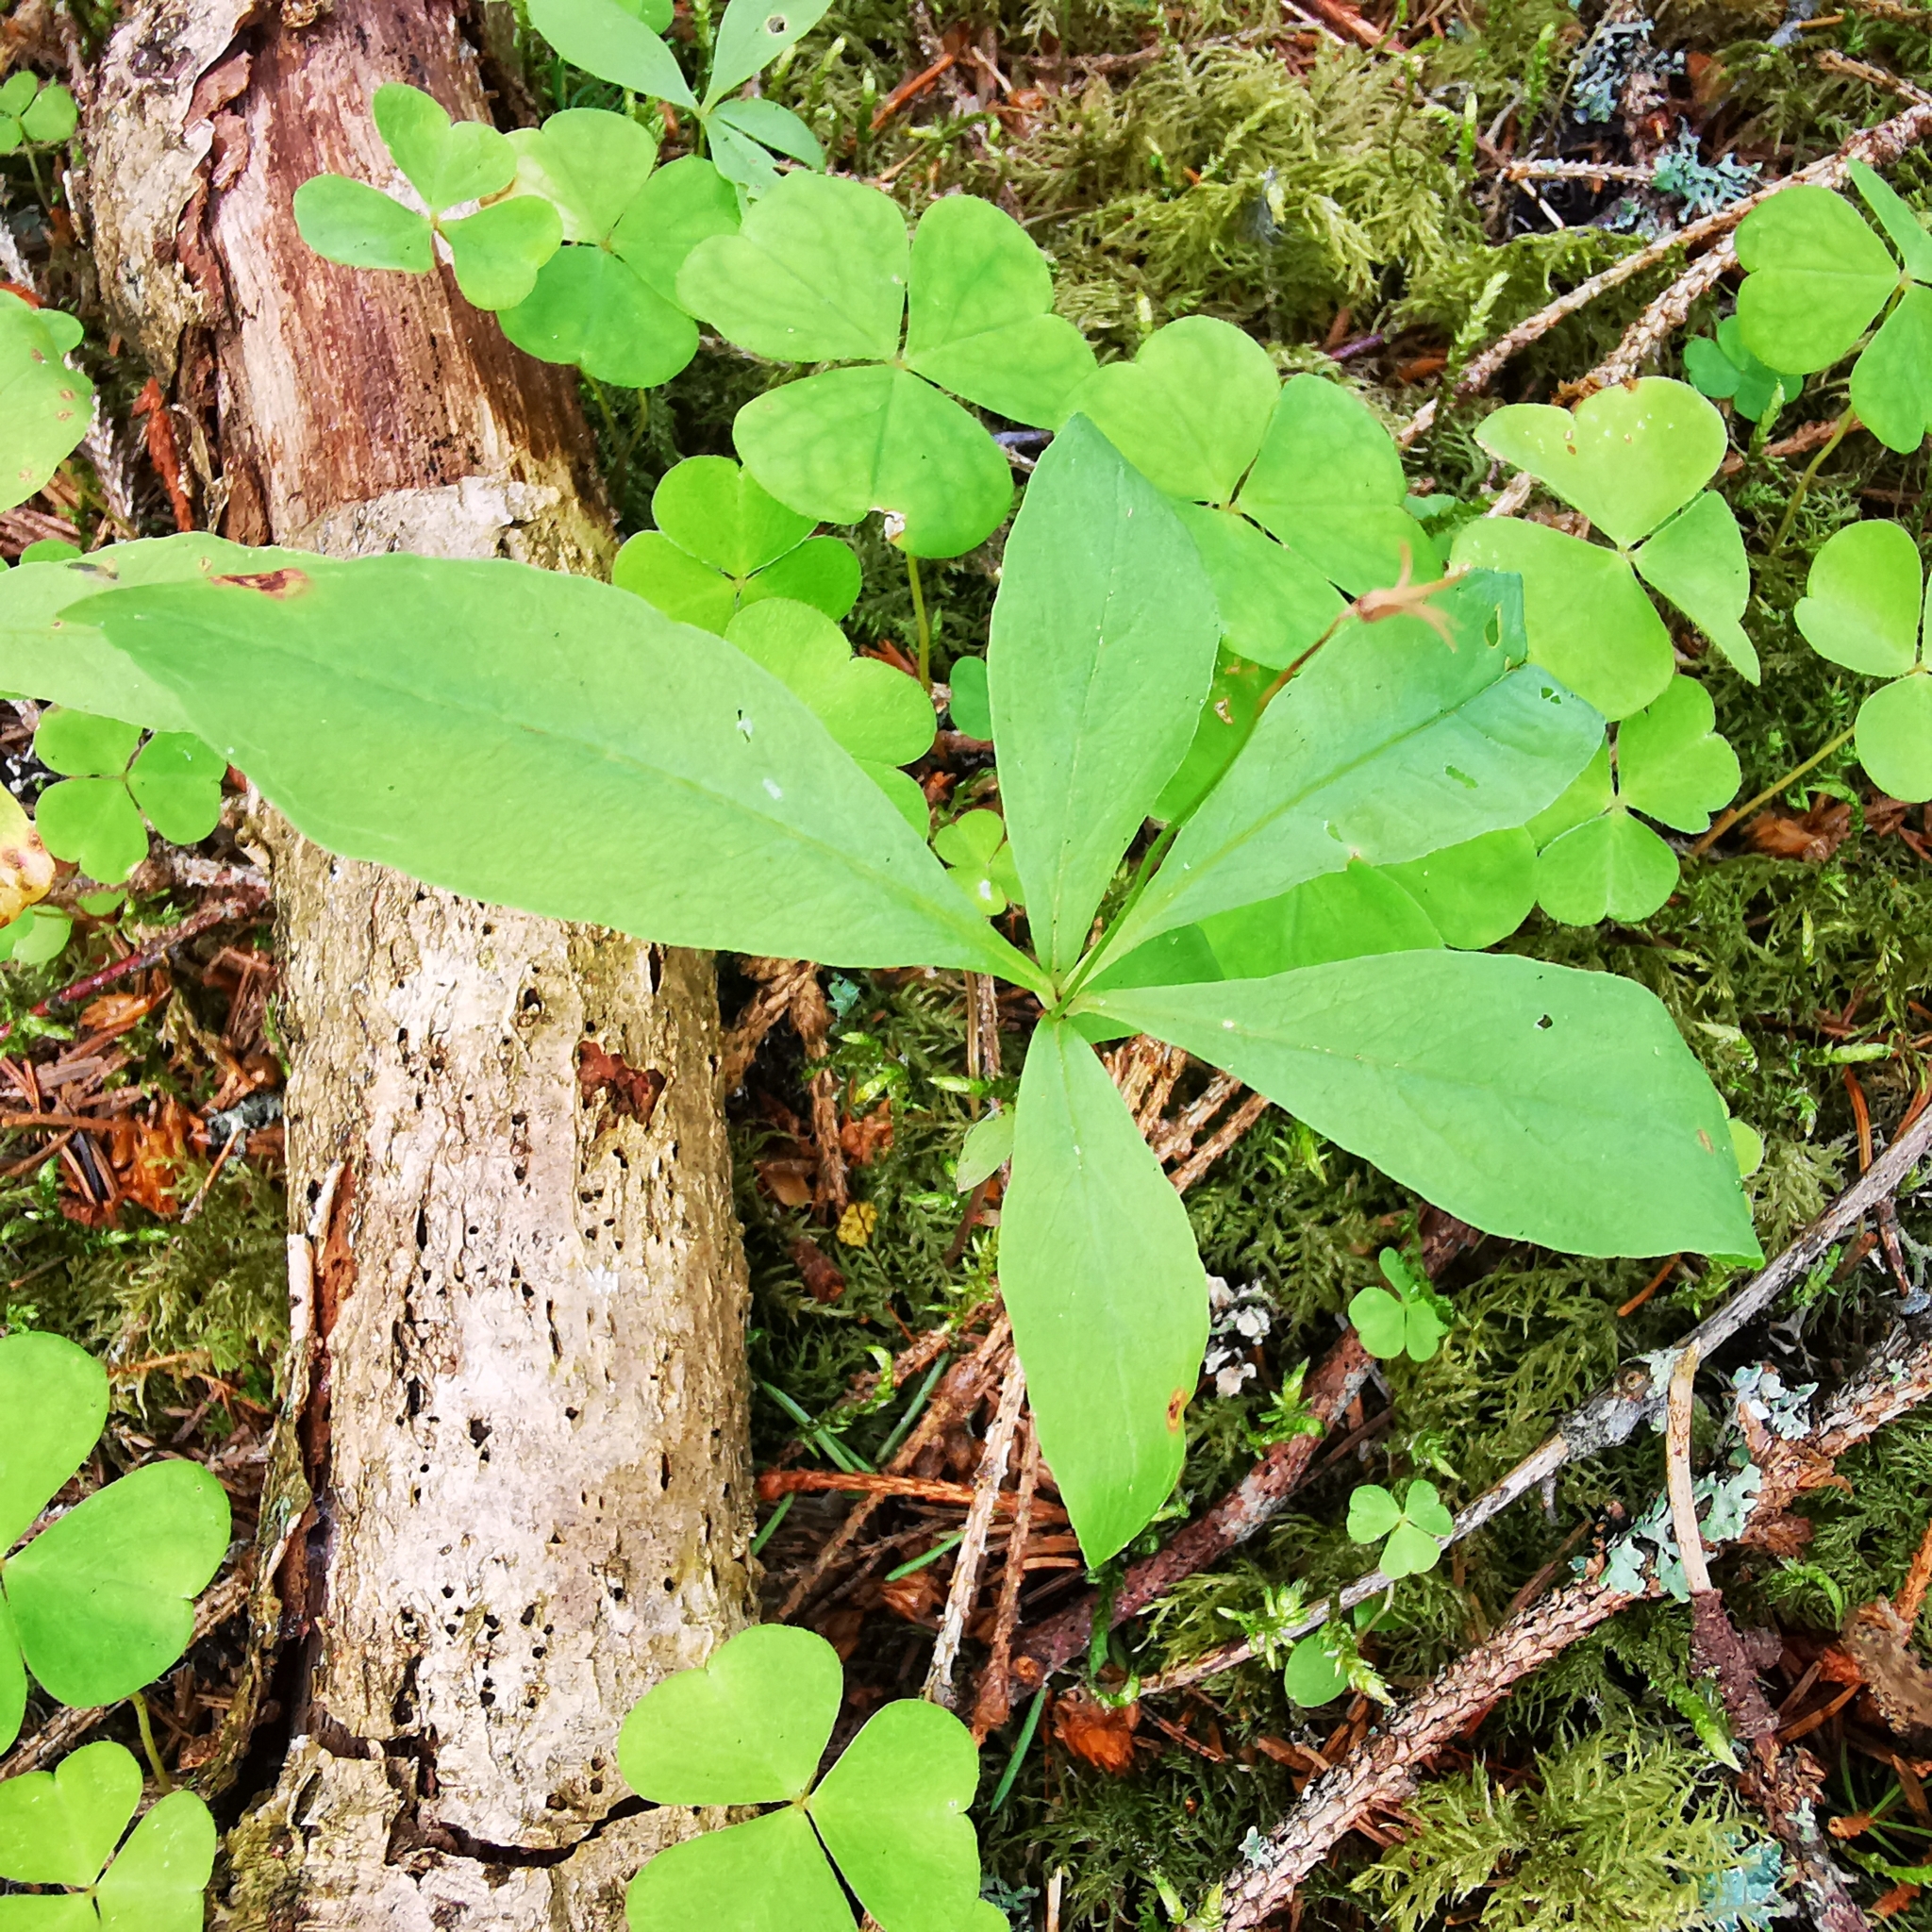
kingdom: Plantae
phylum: Tracheophyta
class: Magnoliopsida
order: Ericales
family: Primulaceae
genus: Lysimachia
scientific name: Lysimachia europaea
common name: Arctic starflower
